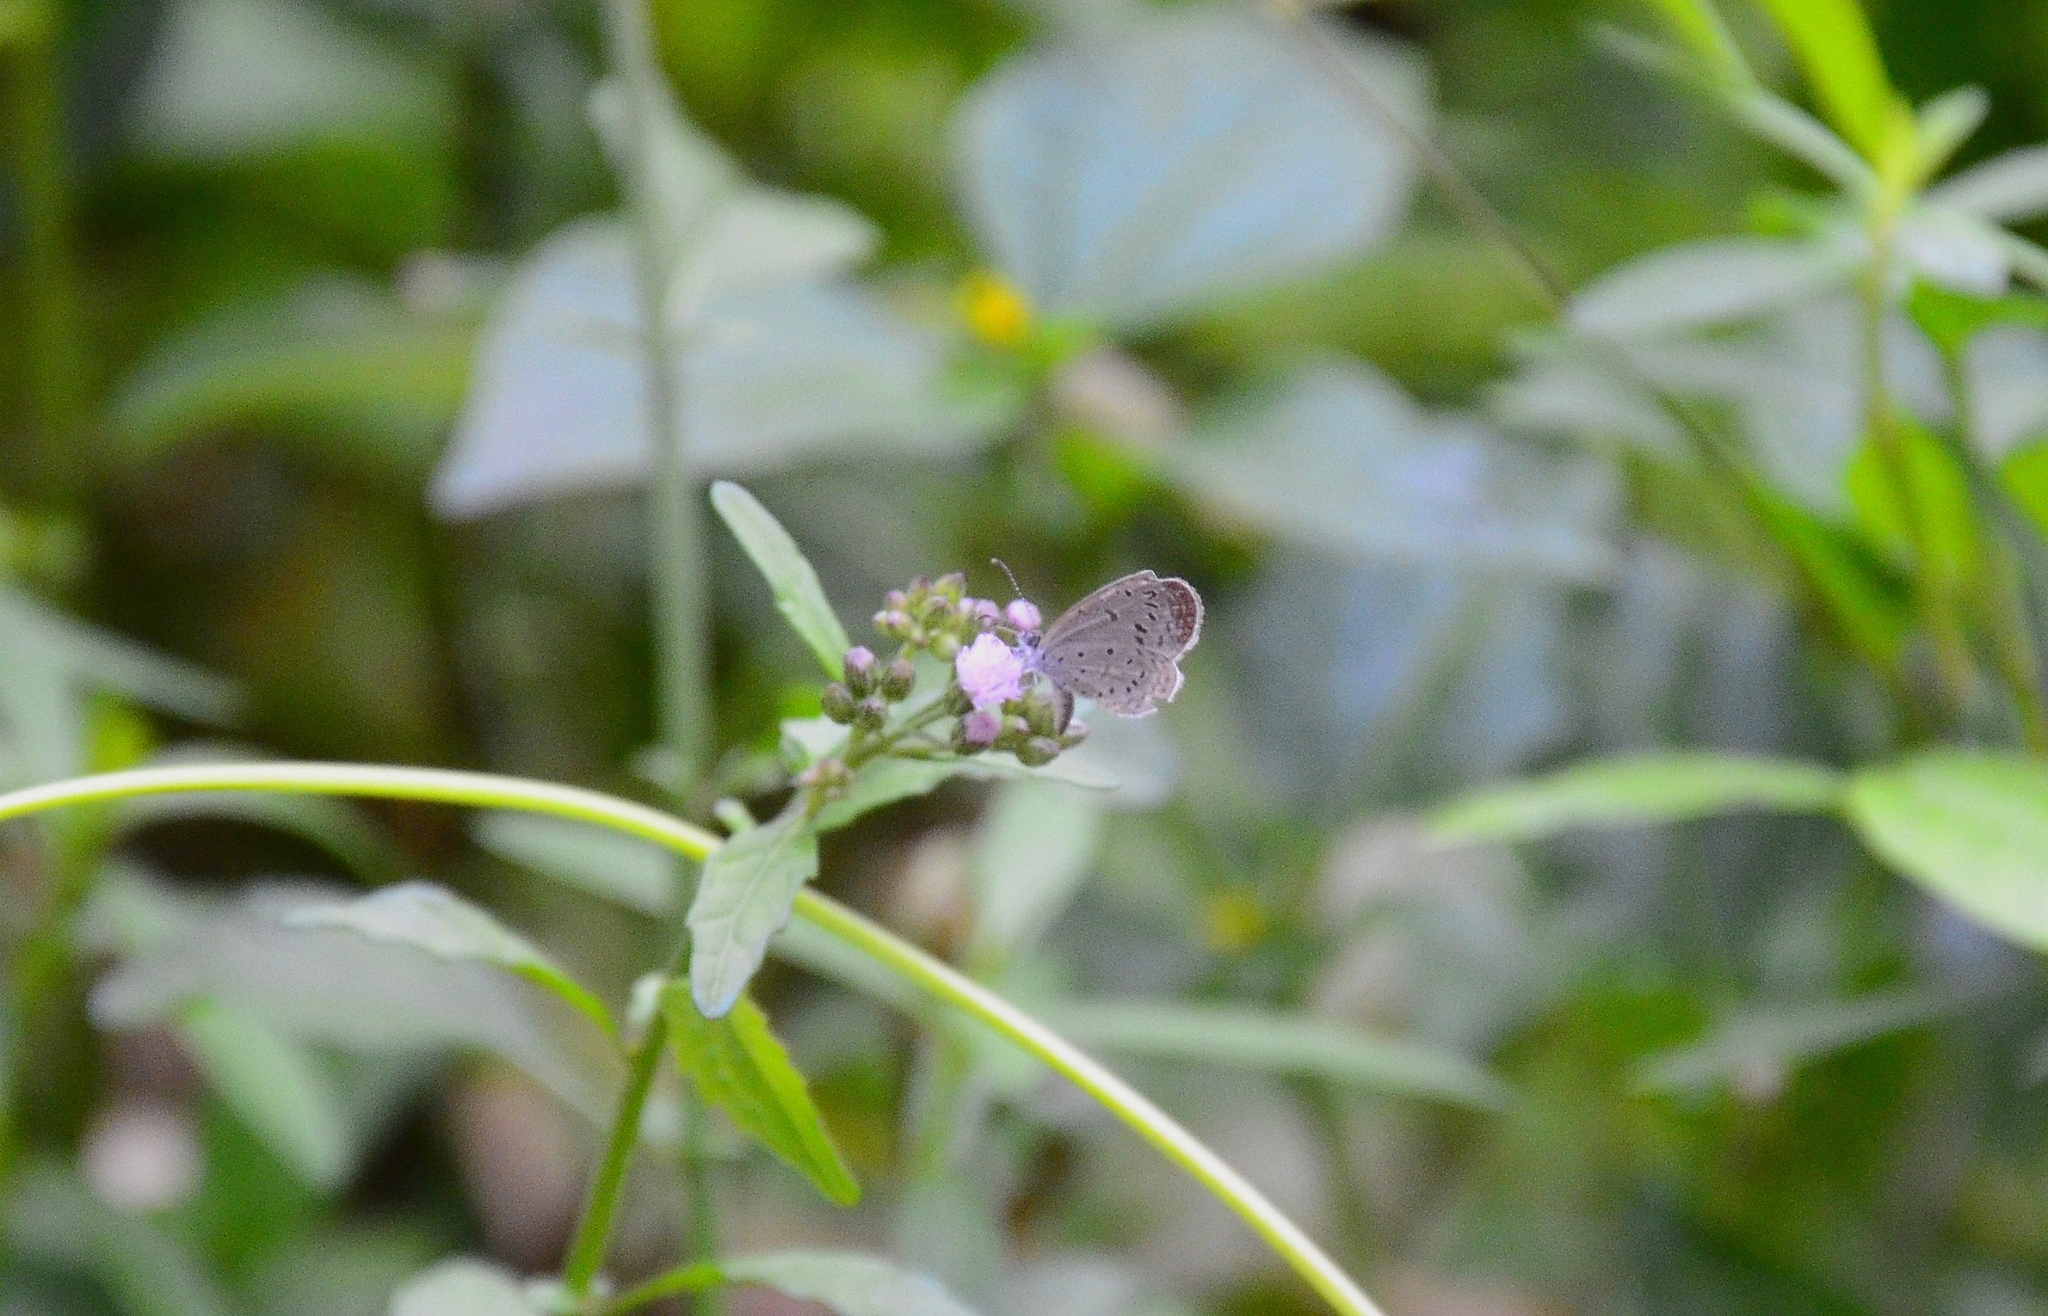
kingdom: Animalia
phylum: Arthropoda
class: Insecta
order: Lepidoptera
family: Lycaenidae
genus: Zizula
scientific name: Zizula hylax
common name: Gaika blue
